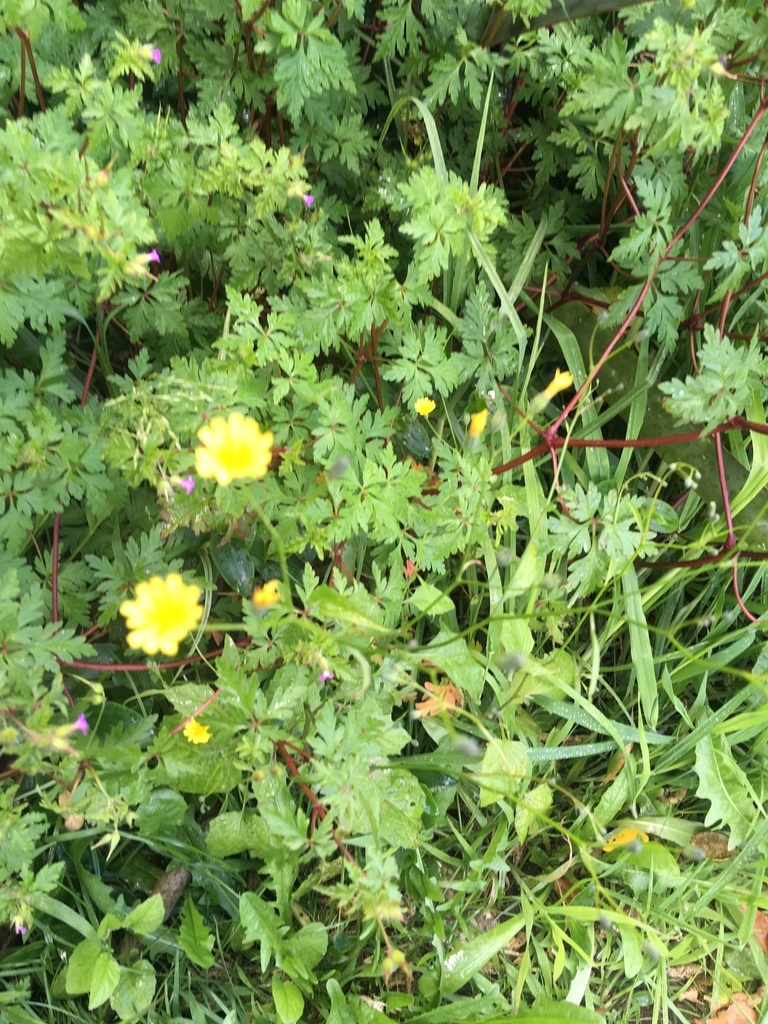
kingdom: Plantae
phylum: Tracheophyta
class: Magnoliopsida
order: Geraniales
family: Geraniaceae
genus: Geranium
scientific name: Geranium robertianum
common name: Herb-robert
